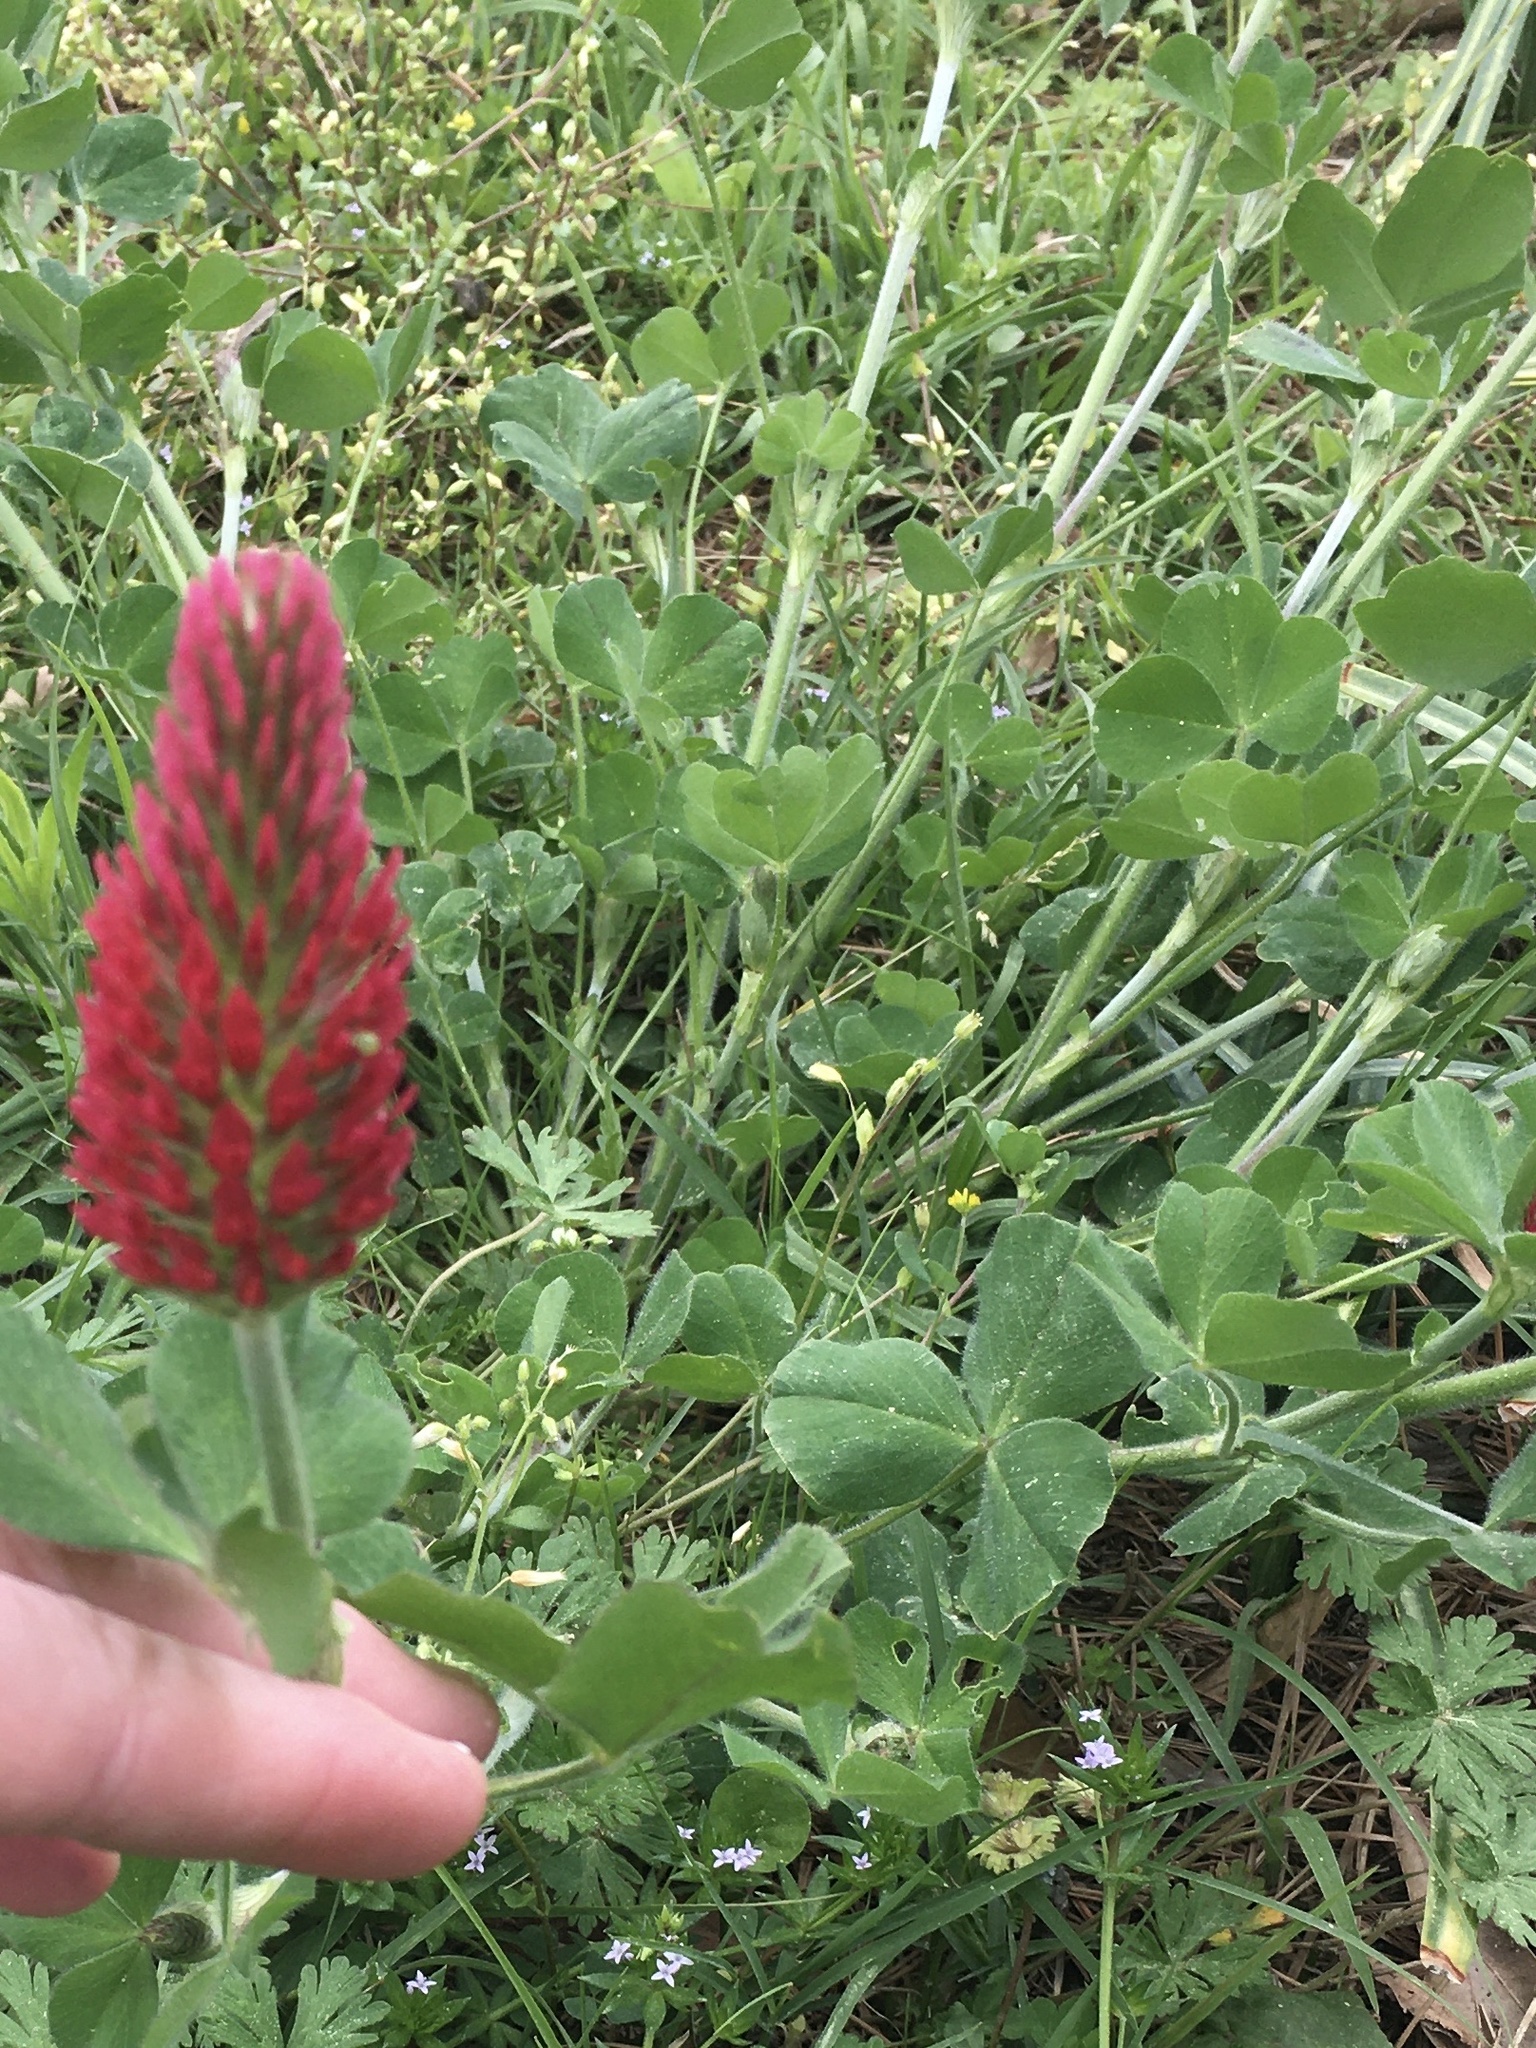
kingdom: Plantae
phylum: Tracheophyta
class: Magnoliopsida
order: Fabales
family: Fabaceae
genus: Trifolium
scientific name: Trifolium incarnatum
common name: Crimson clover
